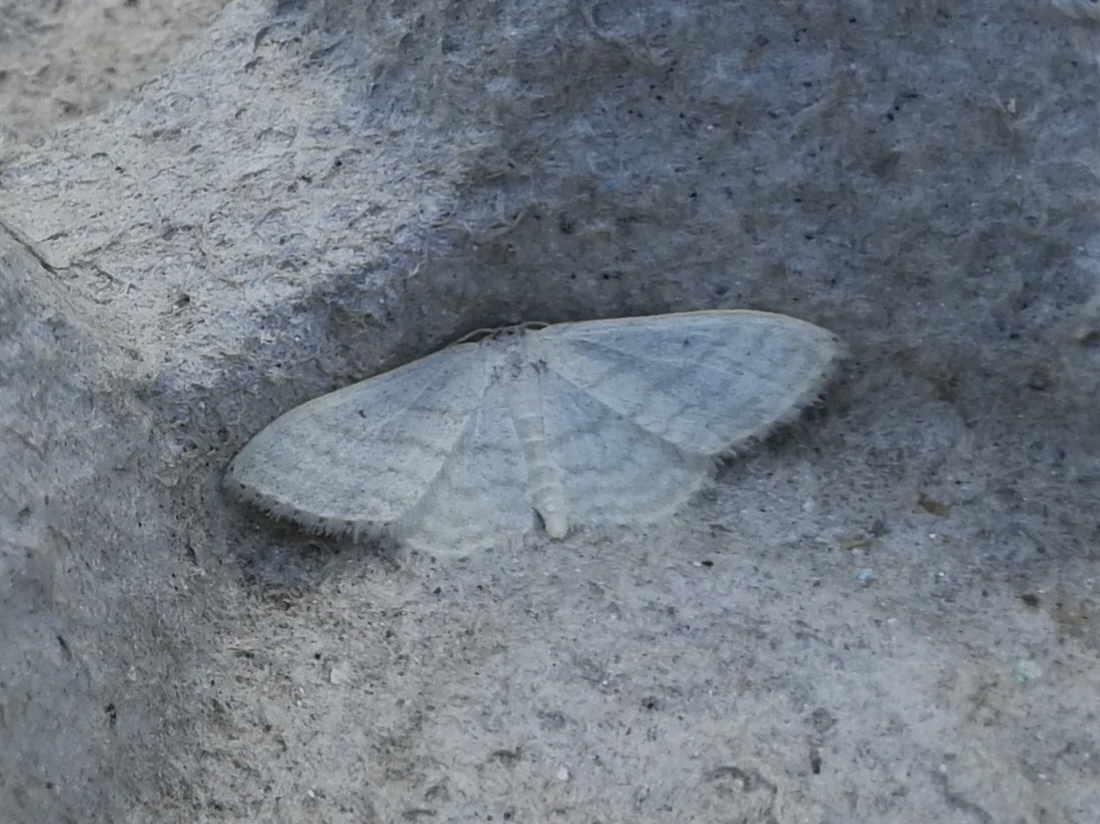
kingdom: Animalia
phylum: Arthropoda
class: Insecta
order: Lepidoptera
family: Geometridae
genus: Idaea
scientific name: Idaea subsericeata
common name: Satin wave
